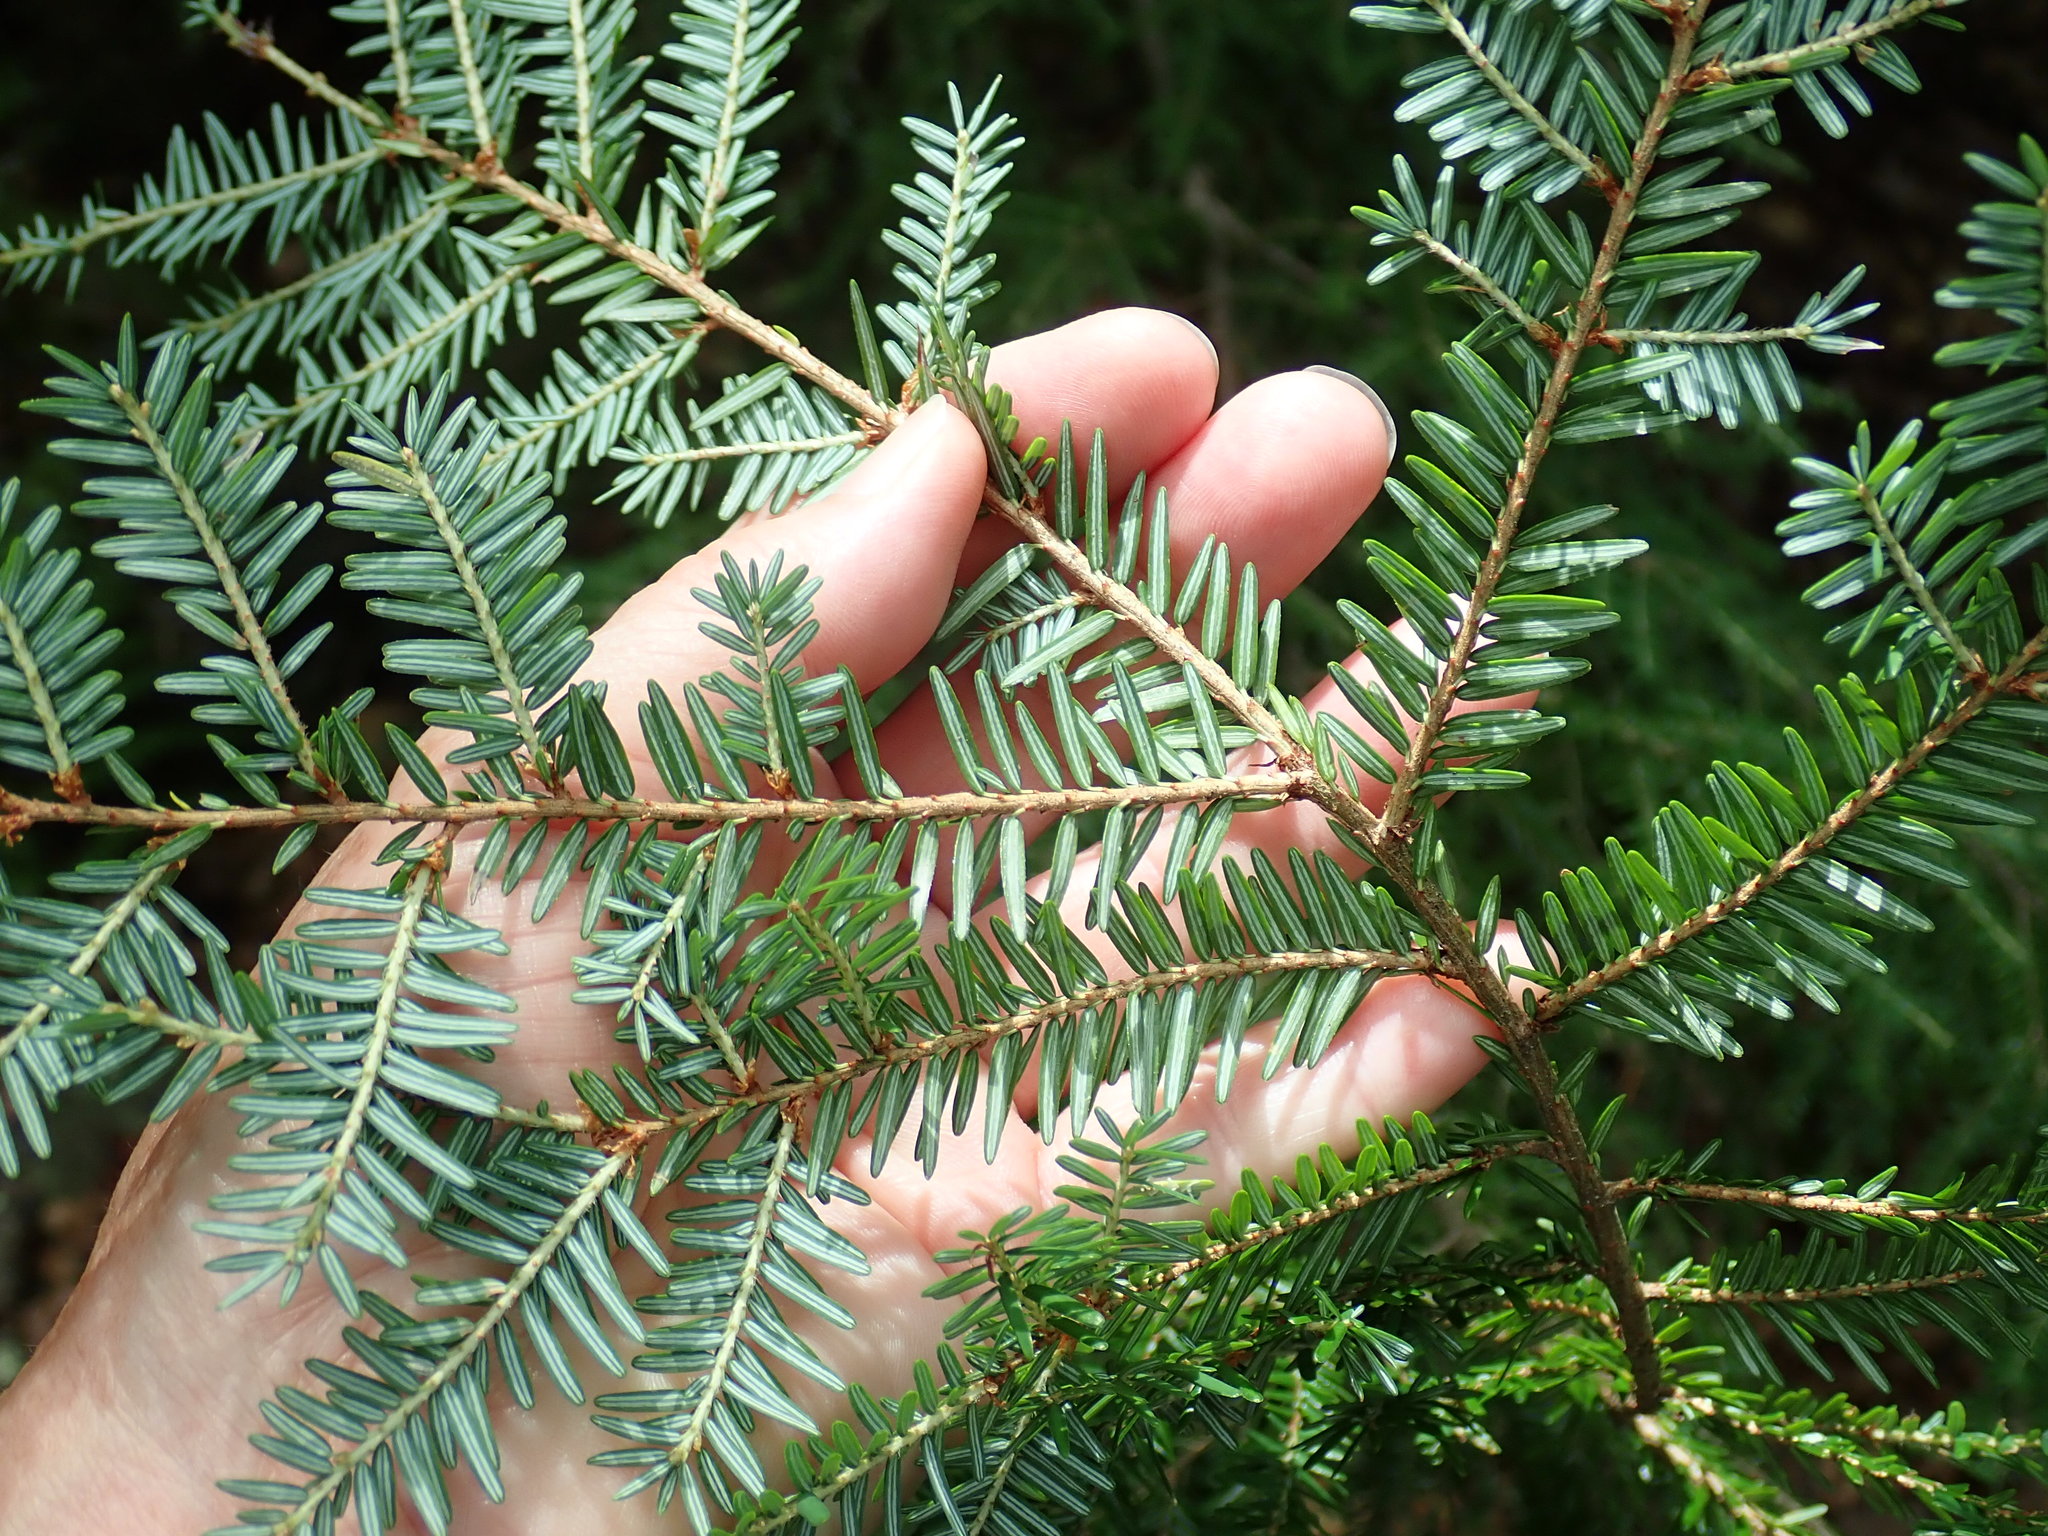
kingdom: Plantae
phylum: Tracheophyta
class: Pinopsida
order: Pinales
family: Pinaceae
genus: Tsuga
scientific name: Tsuga canadensis
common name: Eastern hemlock
